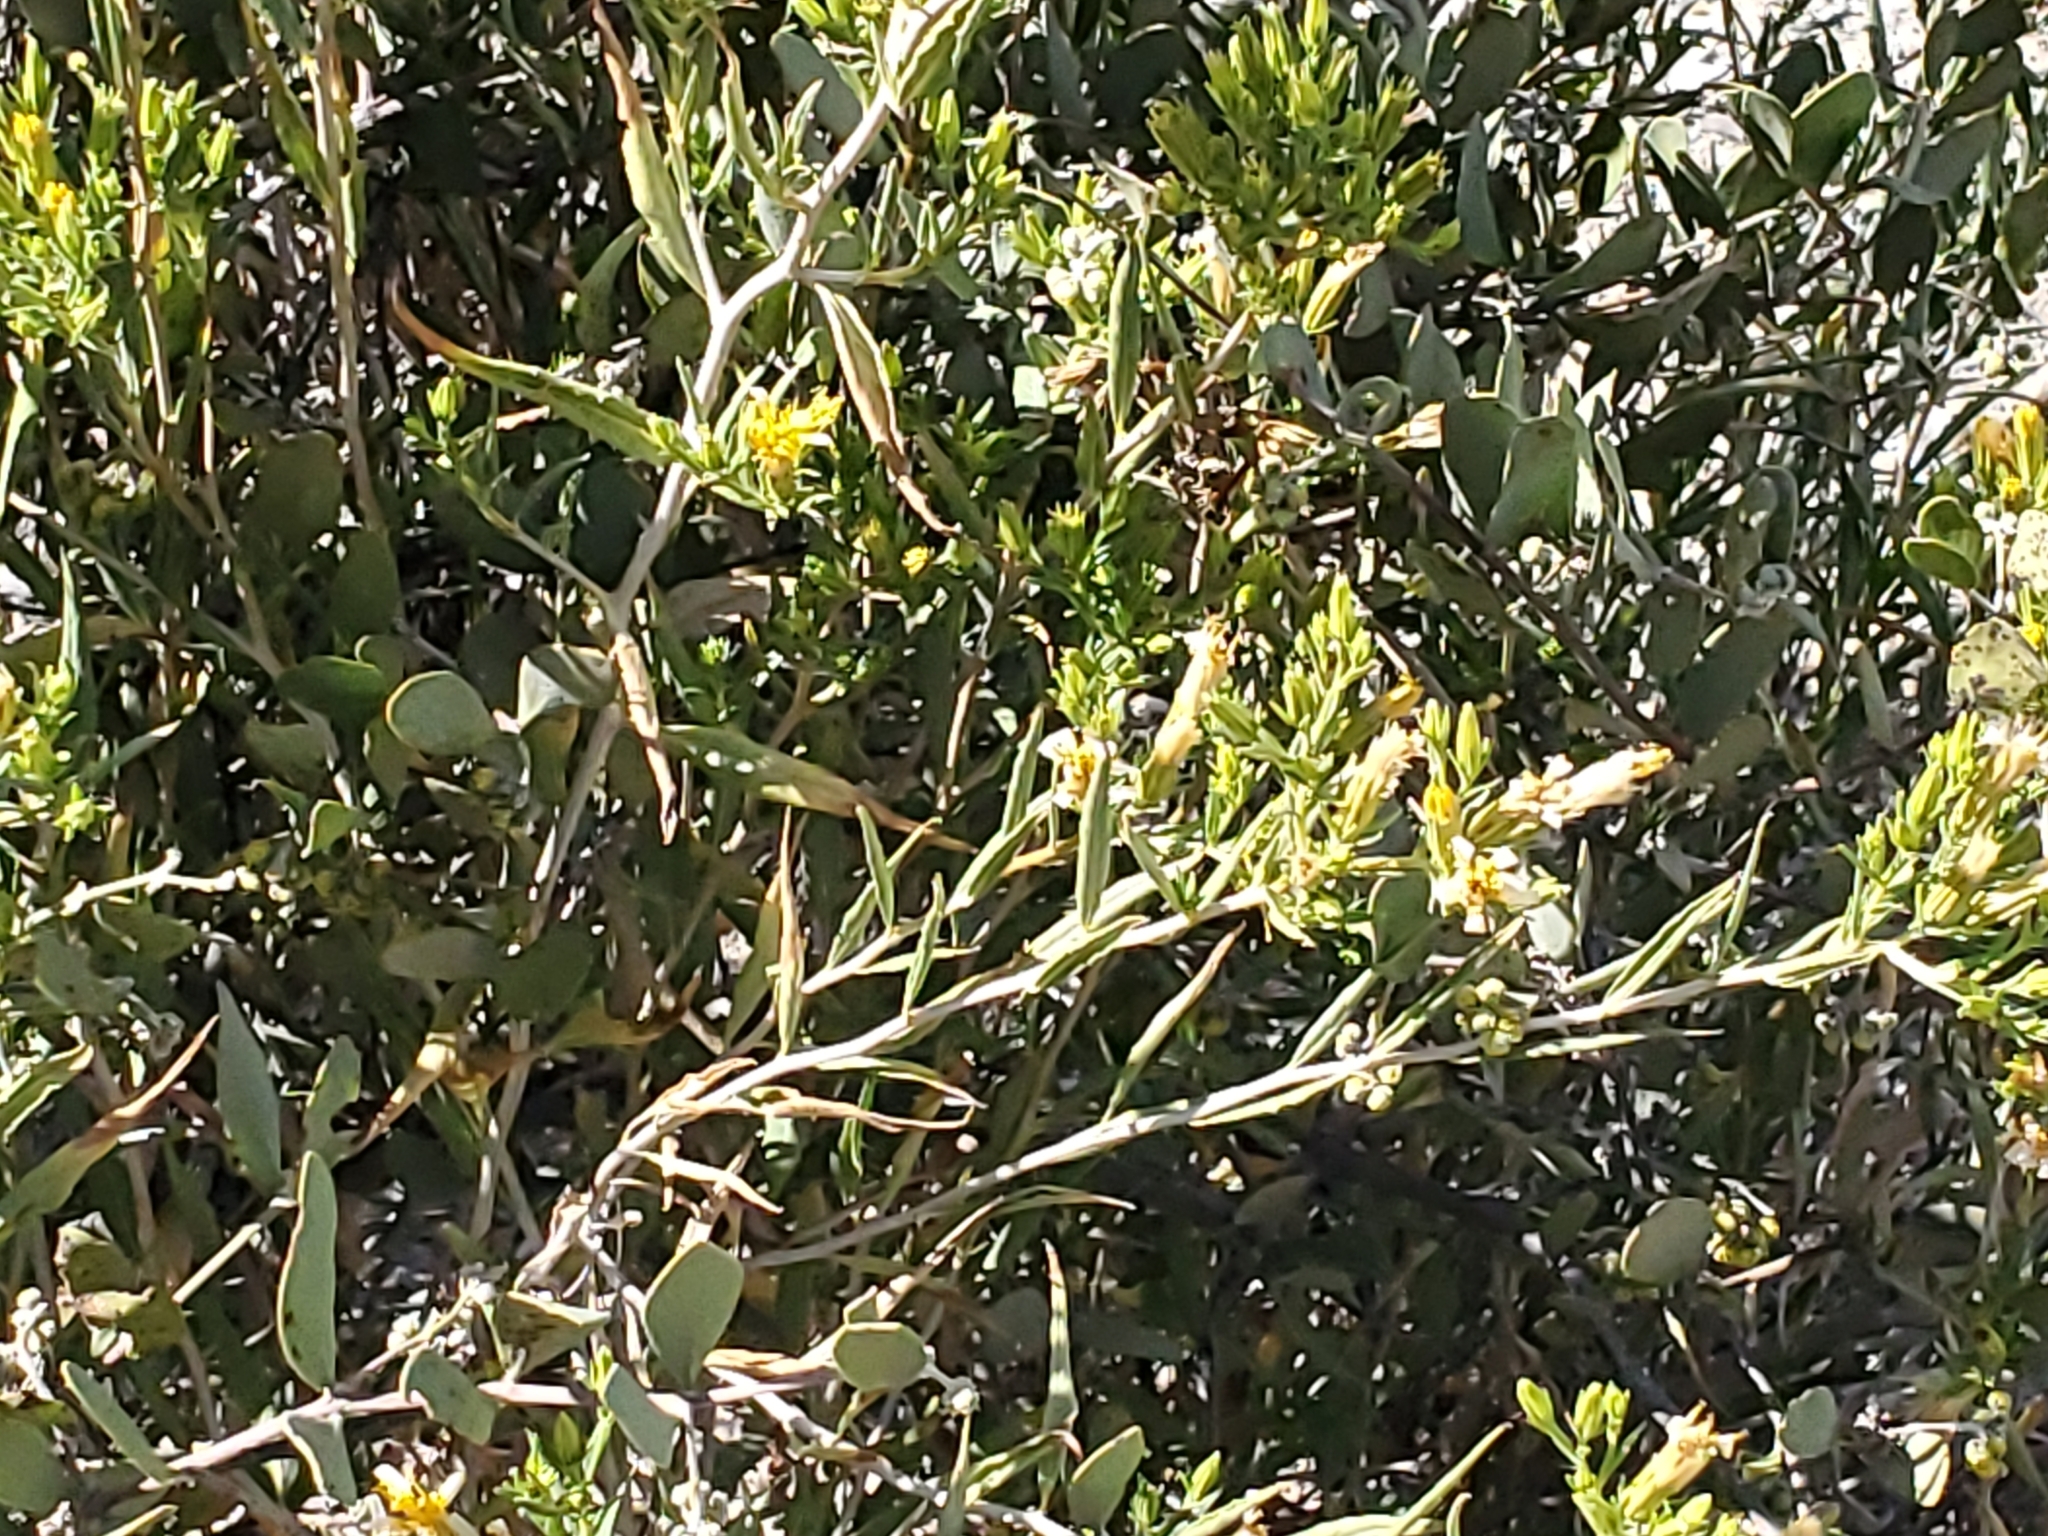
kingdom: Plantae
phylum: Tracheophyta
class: Magnoliopsida
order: Asterales
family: Asteraceae
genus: Trixis
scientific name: Trixis californica
